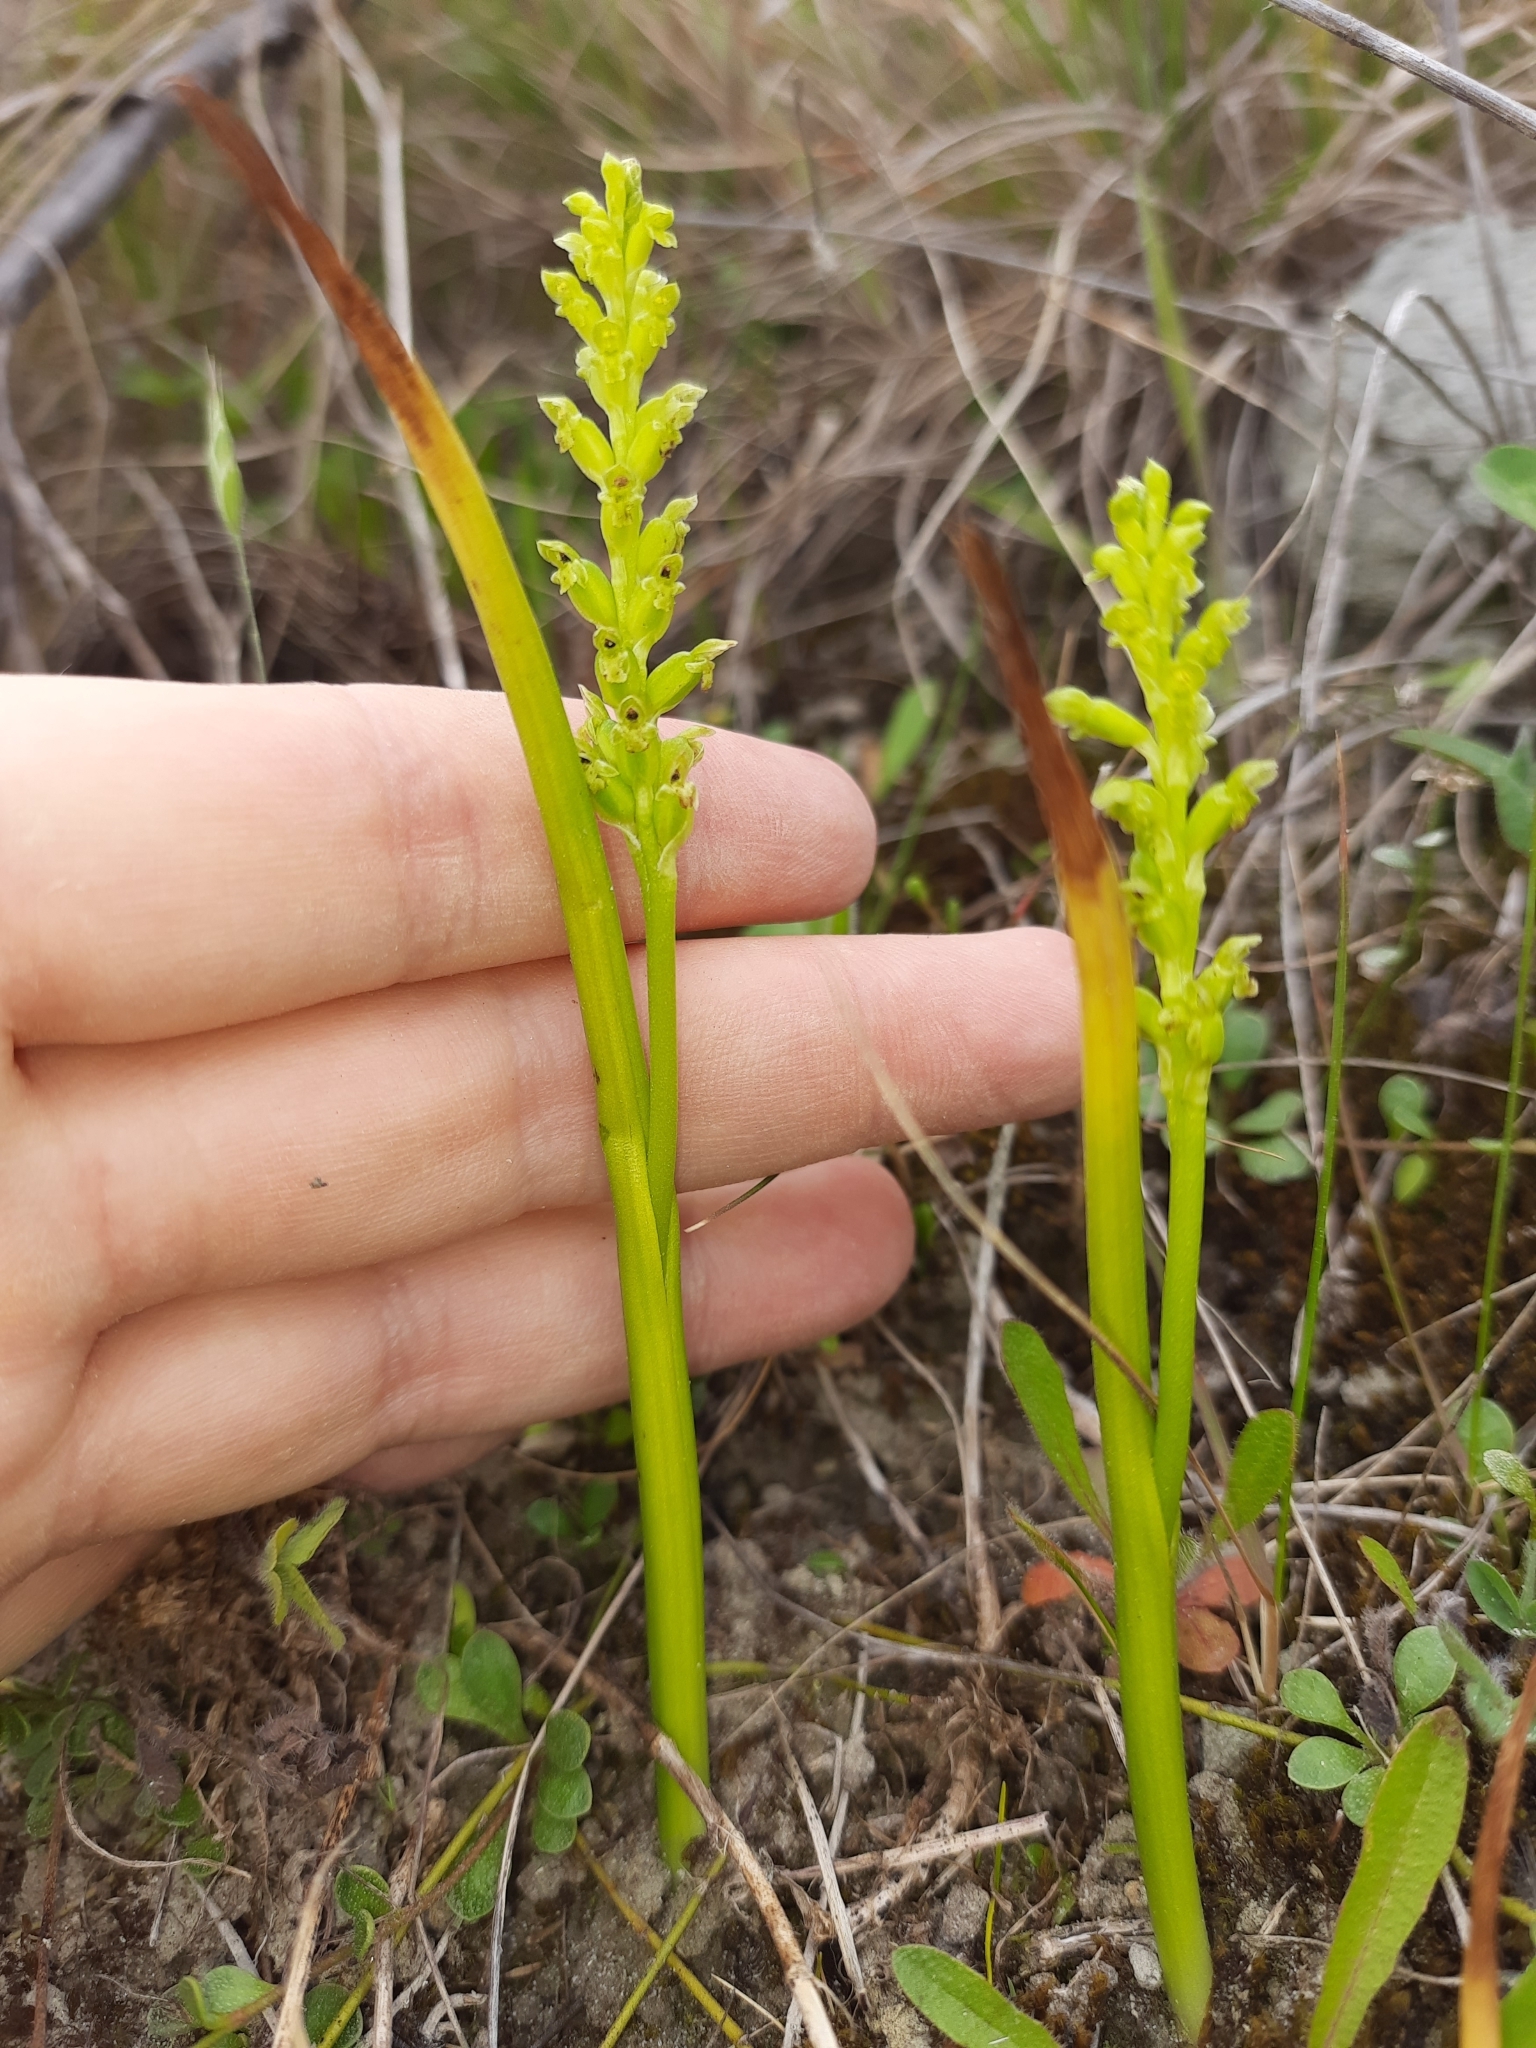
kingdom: Plantae
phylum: Tracheophyta
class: Liliopsida
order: Asparagales
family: Orchidaceae
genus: Microtis
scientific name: Microtis unifolia
